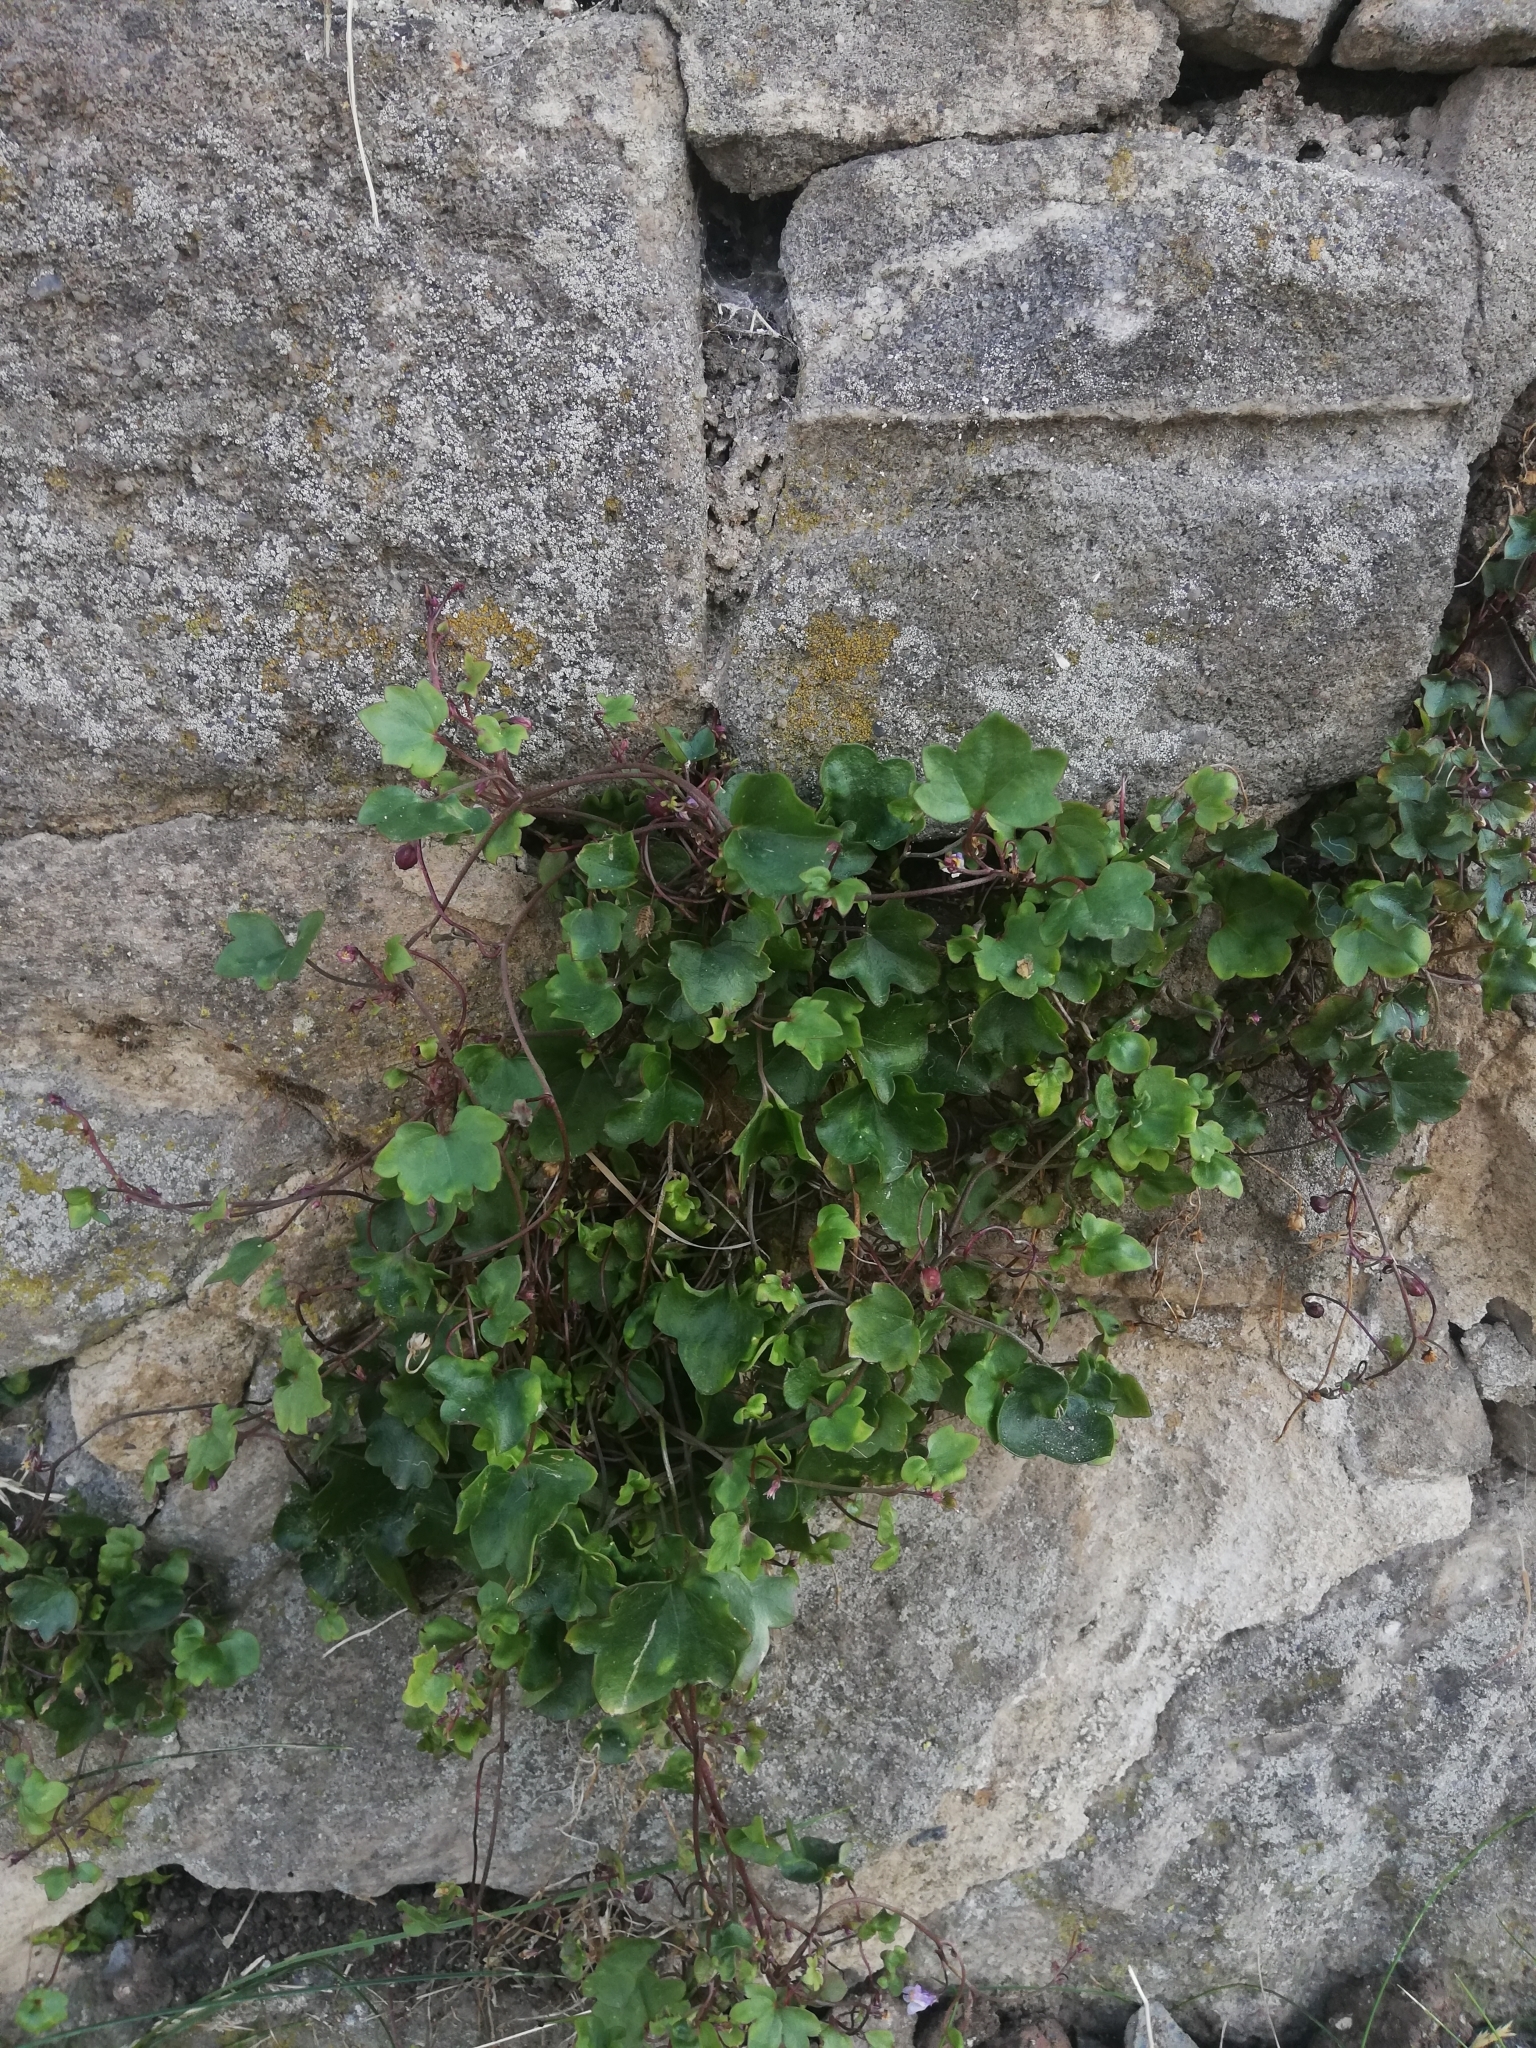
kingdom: Plantae
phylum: Tracheophyta
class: Magnoliopsida
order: Lamiales
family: Plantaginaceae
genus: Cymbalaria
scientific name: Cymbalaria muralis
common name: Ivy-leaved toadflax
